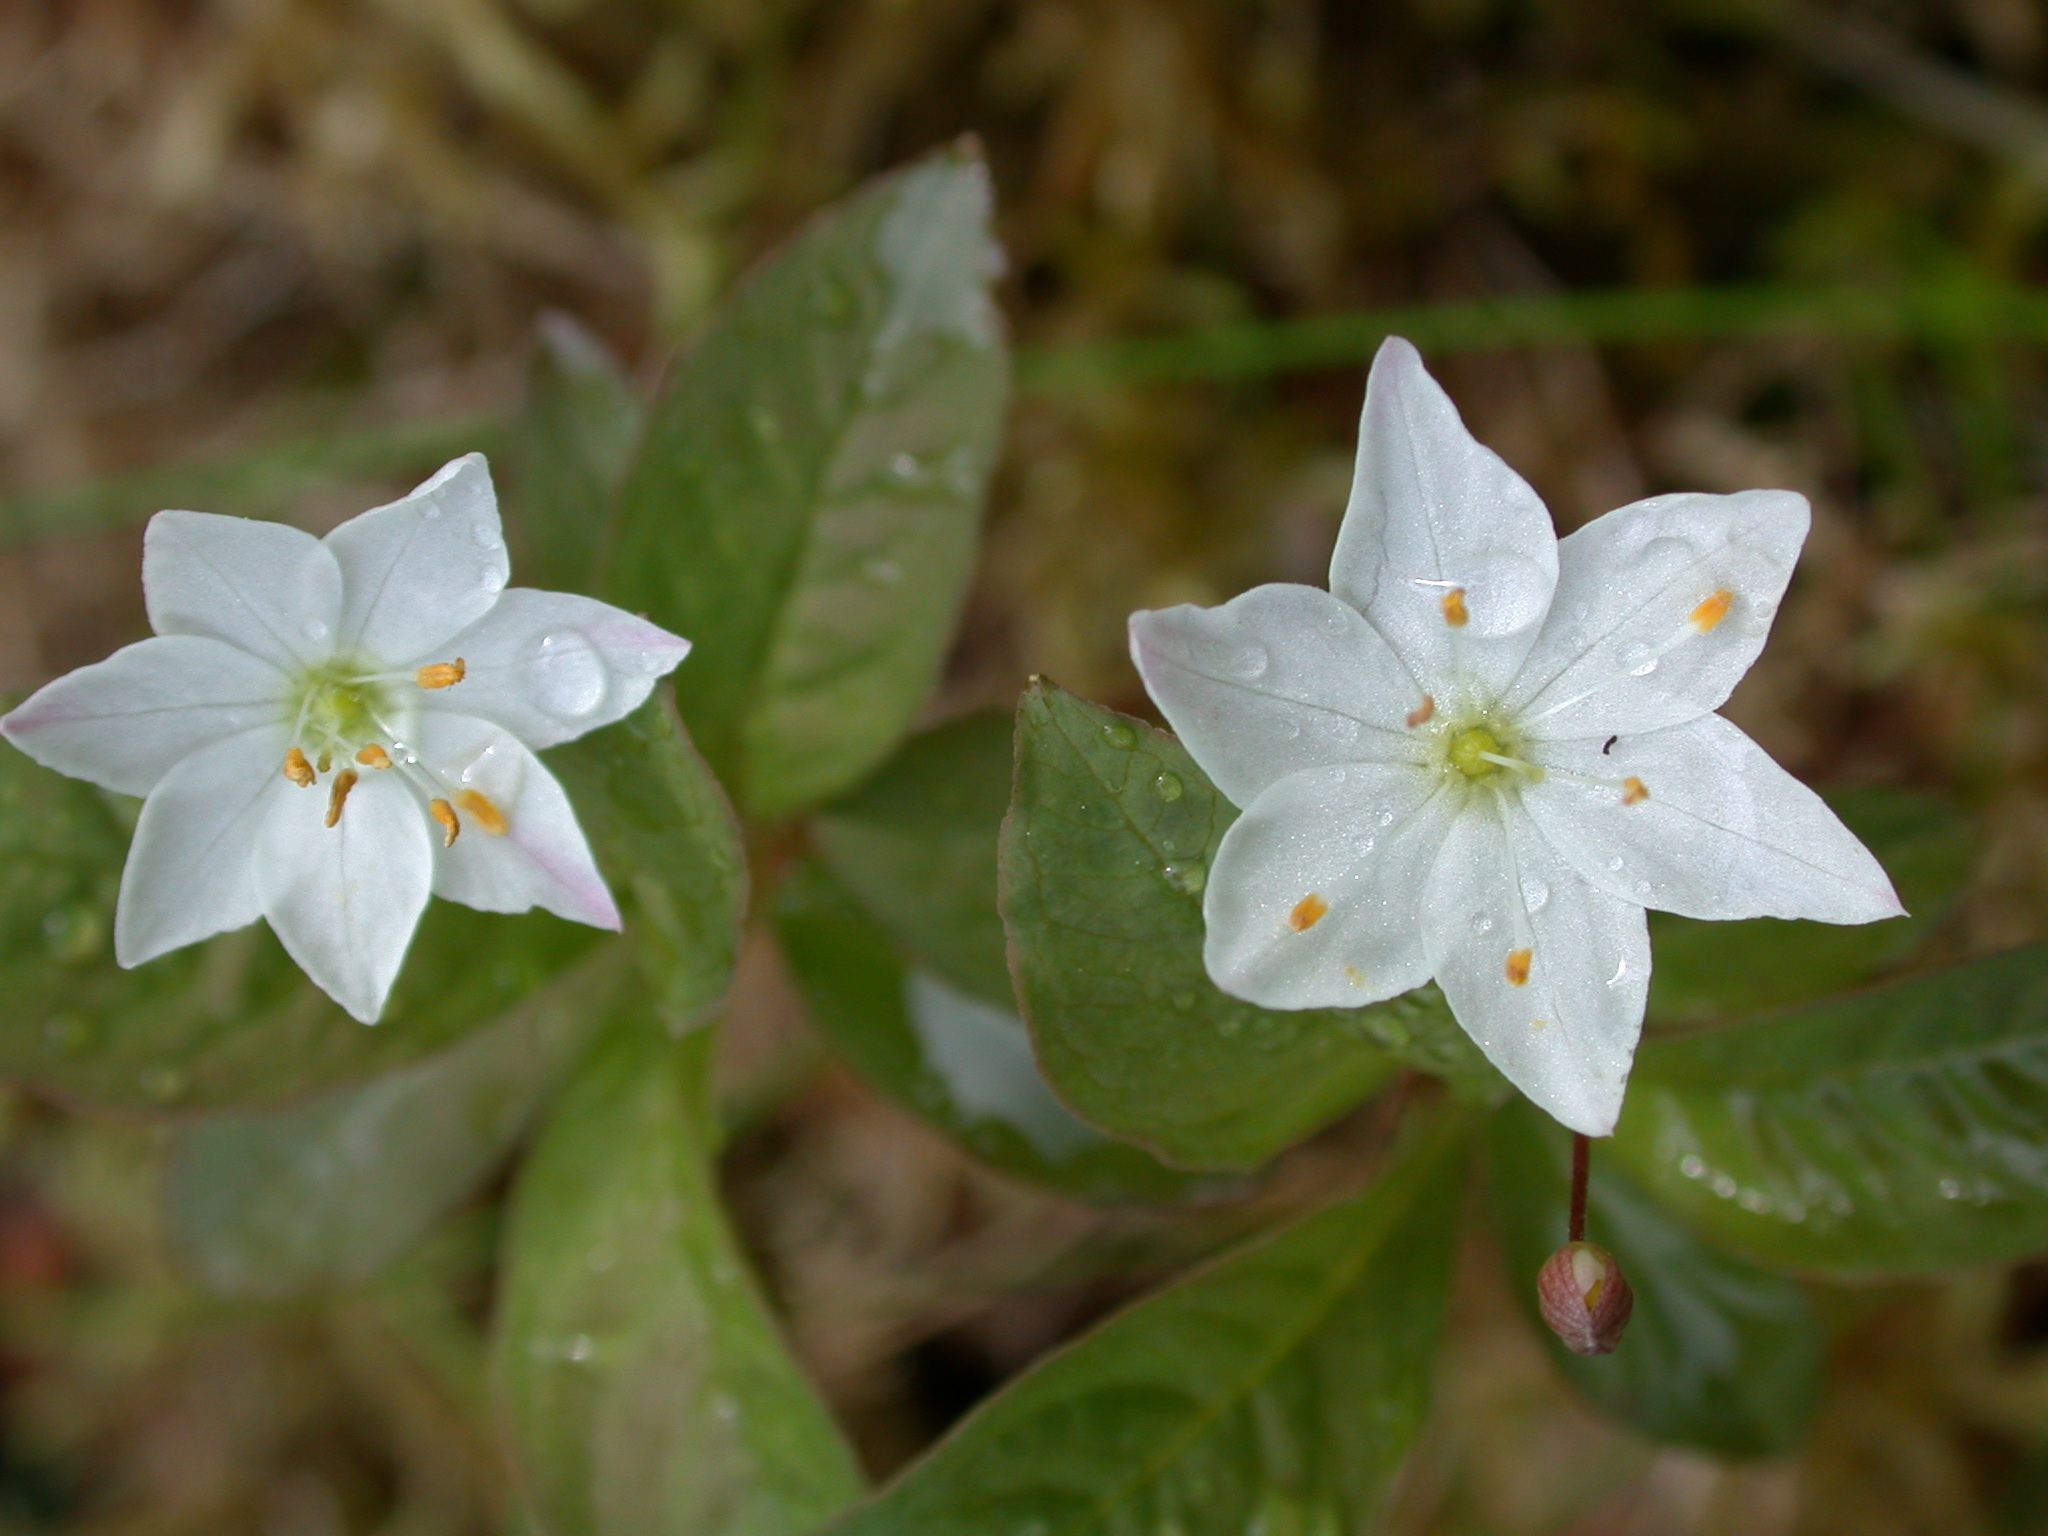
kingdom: Plantae
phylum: Tracheophyta
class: Magnoliopsida
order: Ericales
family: Primulaceae
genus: Lysimachia
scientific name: Lysimachia europaea
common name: Arctic starflower
